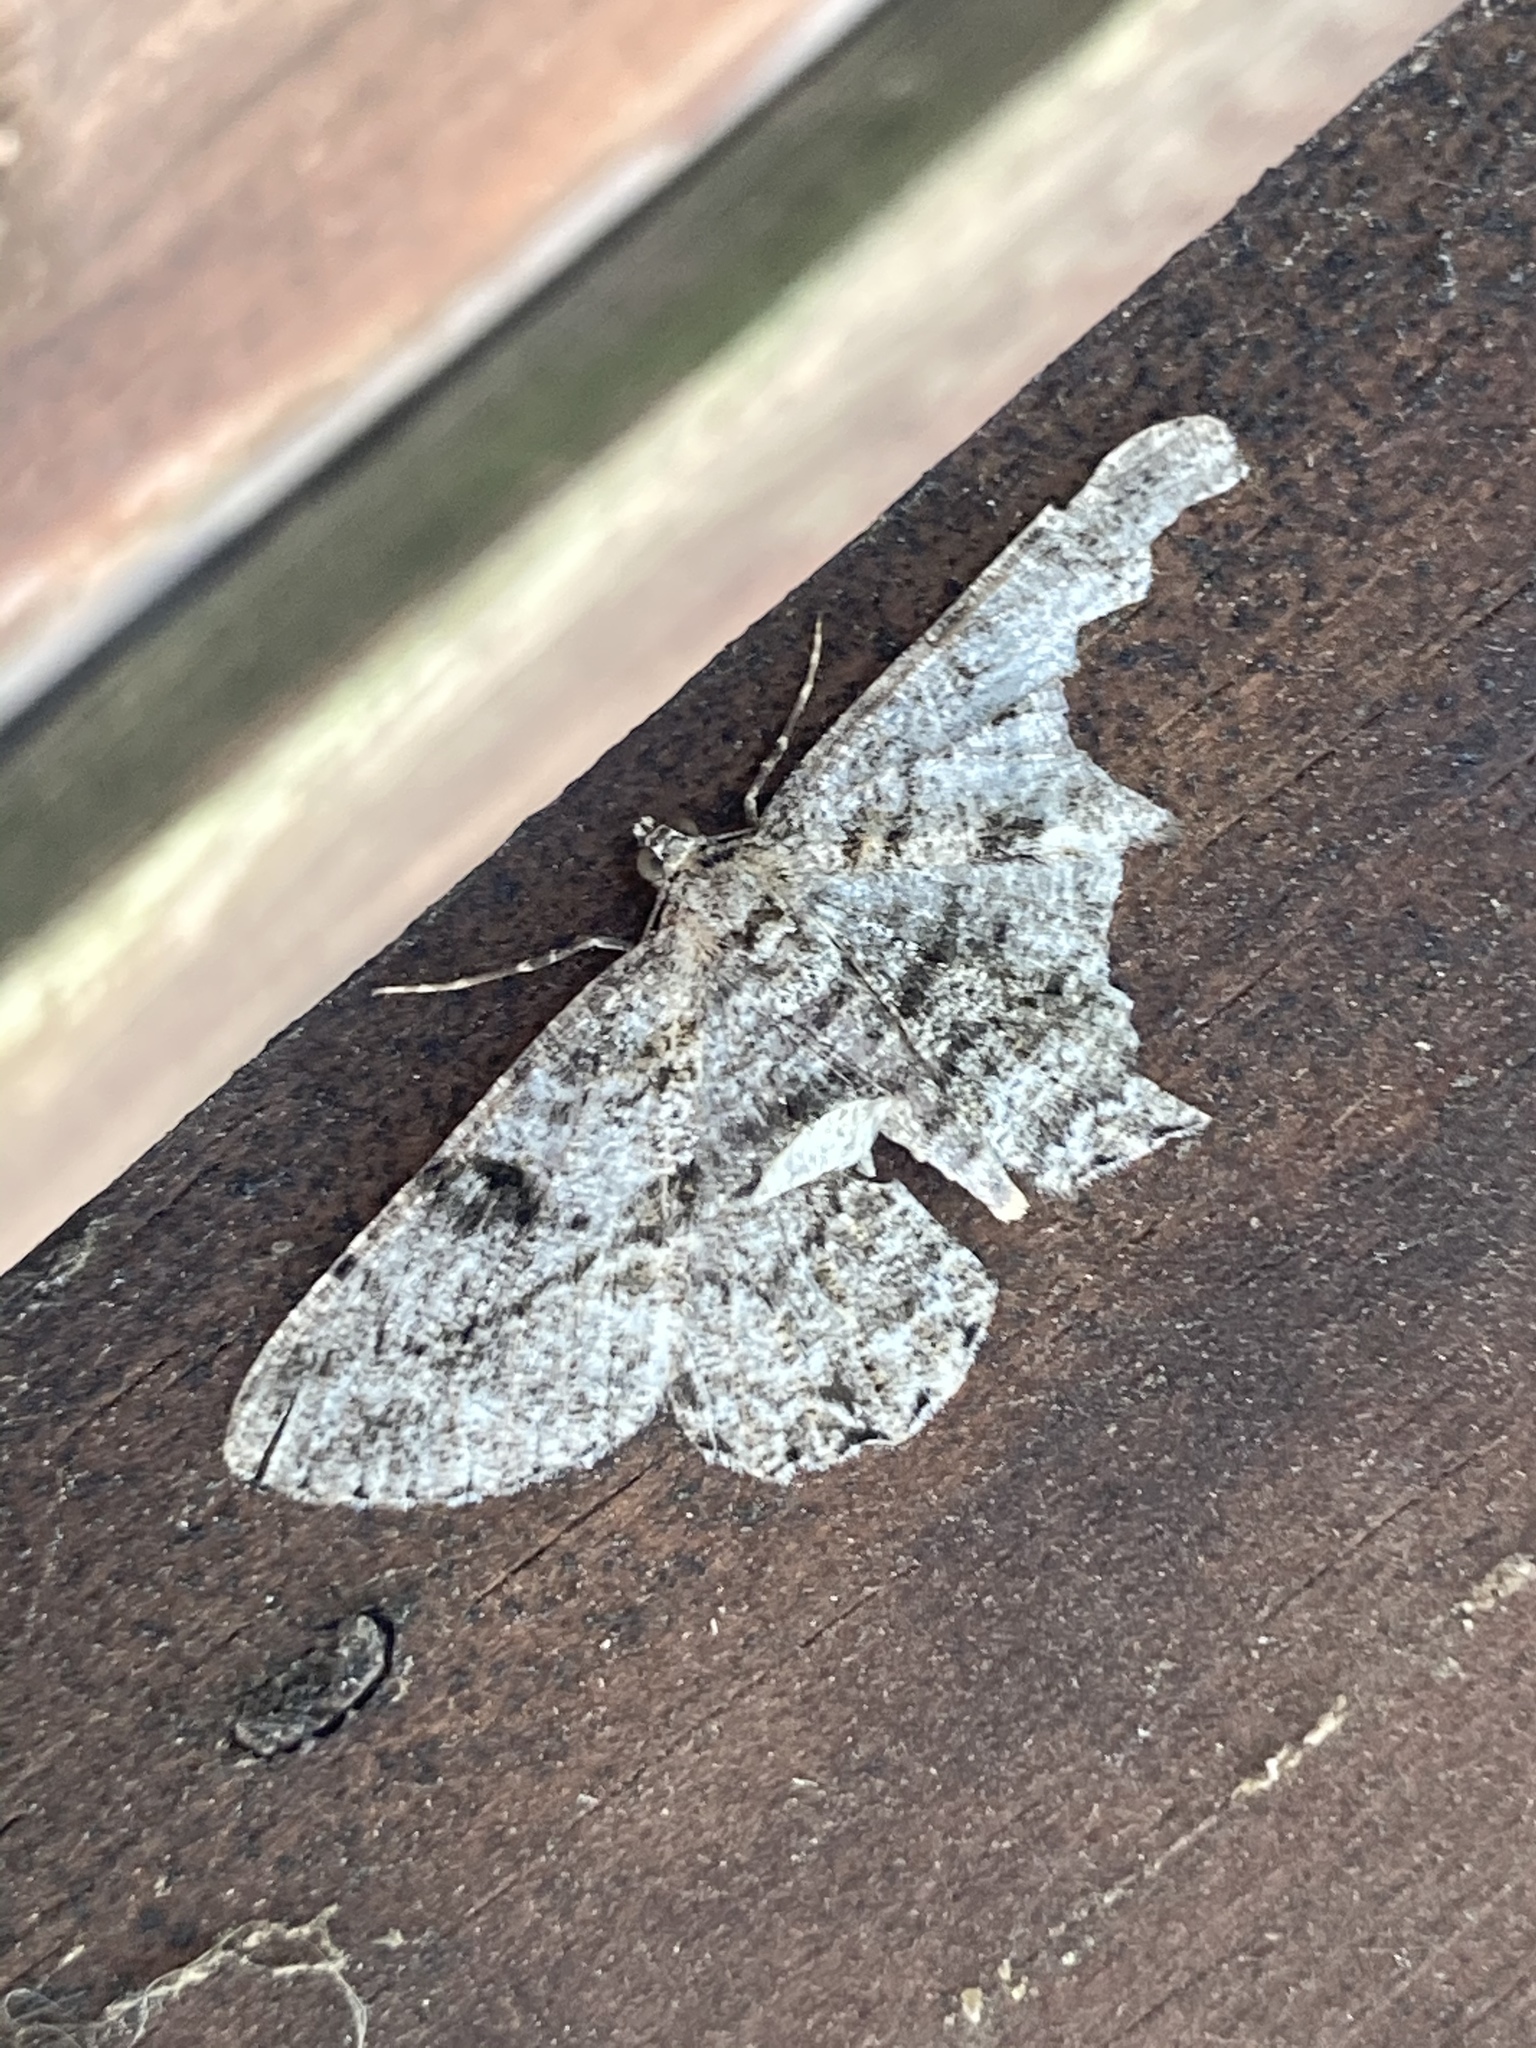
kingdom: Animalia
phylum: Arthropoda
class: Insecta
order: Lepidoptera
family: Geometridae
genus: Peribatodes
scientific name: Peribatodes rhomboidaria
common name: Willow beauty
